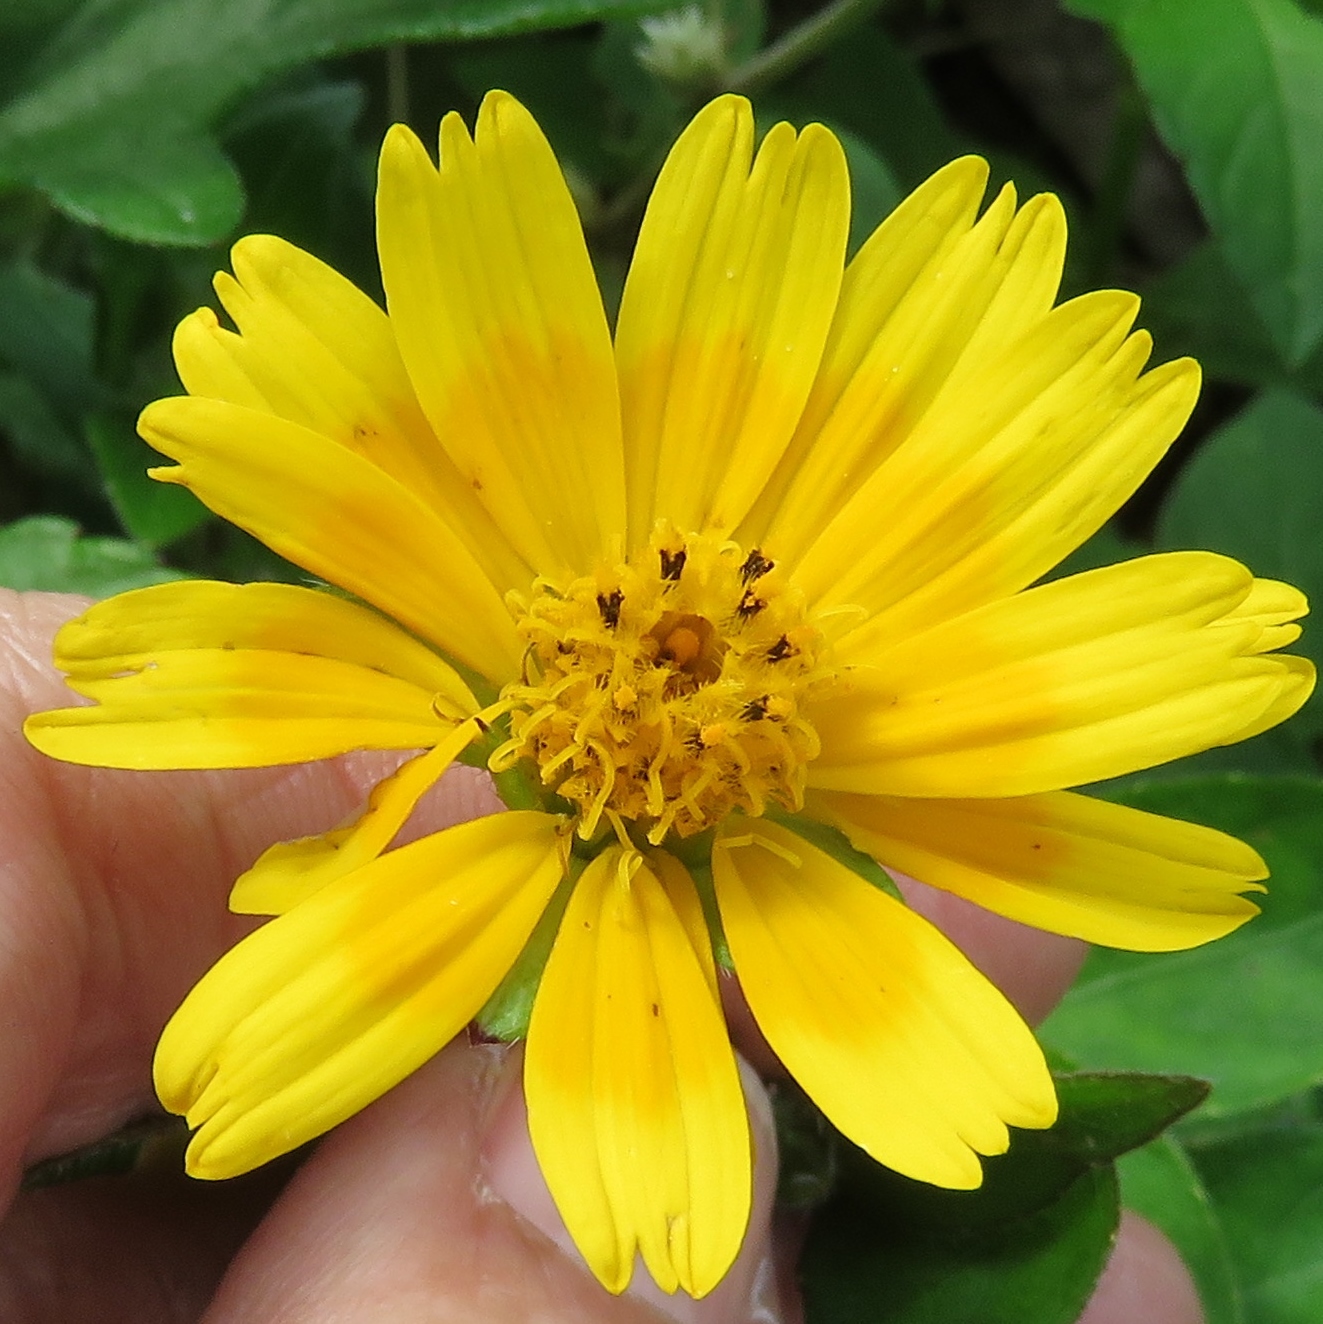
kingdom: Plantae
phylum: Tracheophyta
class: Magnoliopsida
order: Asterales
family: Asteraceae
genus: Sphagneticola
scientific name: Sphagneticola trilobata
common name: Bay biscayne creeping-oxeye
